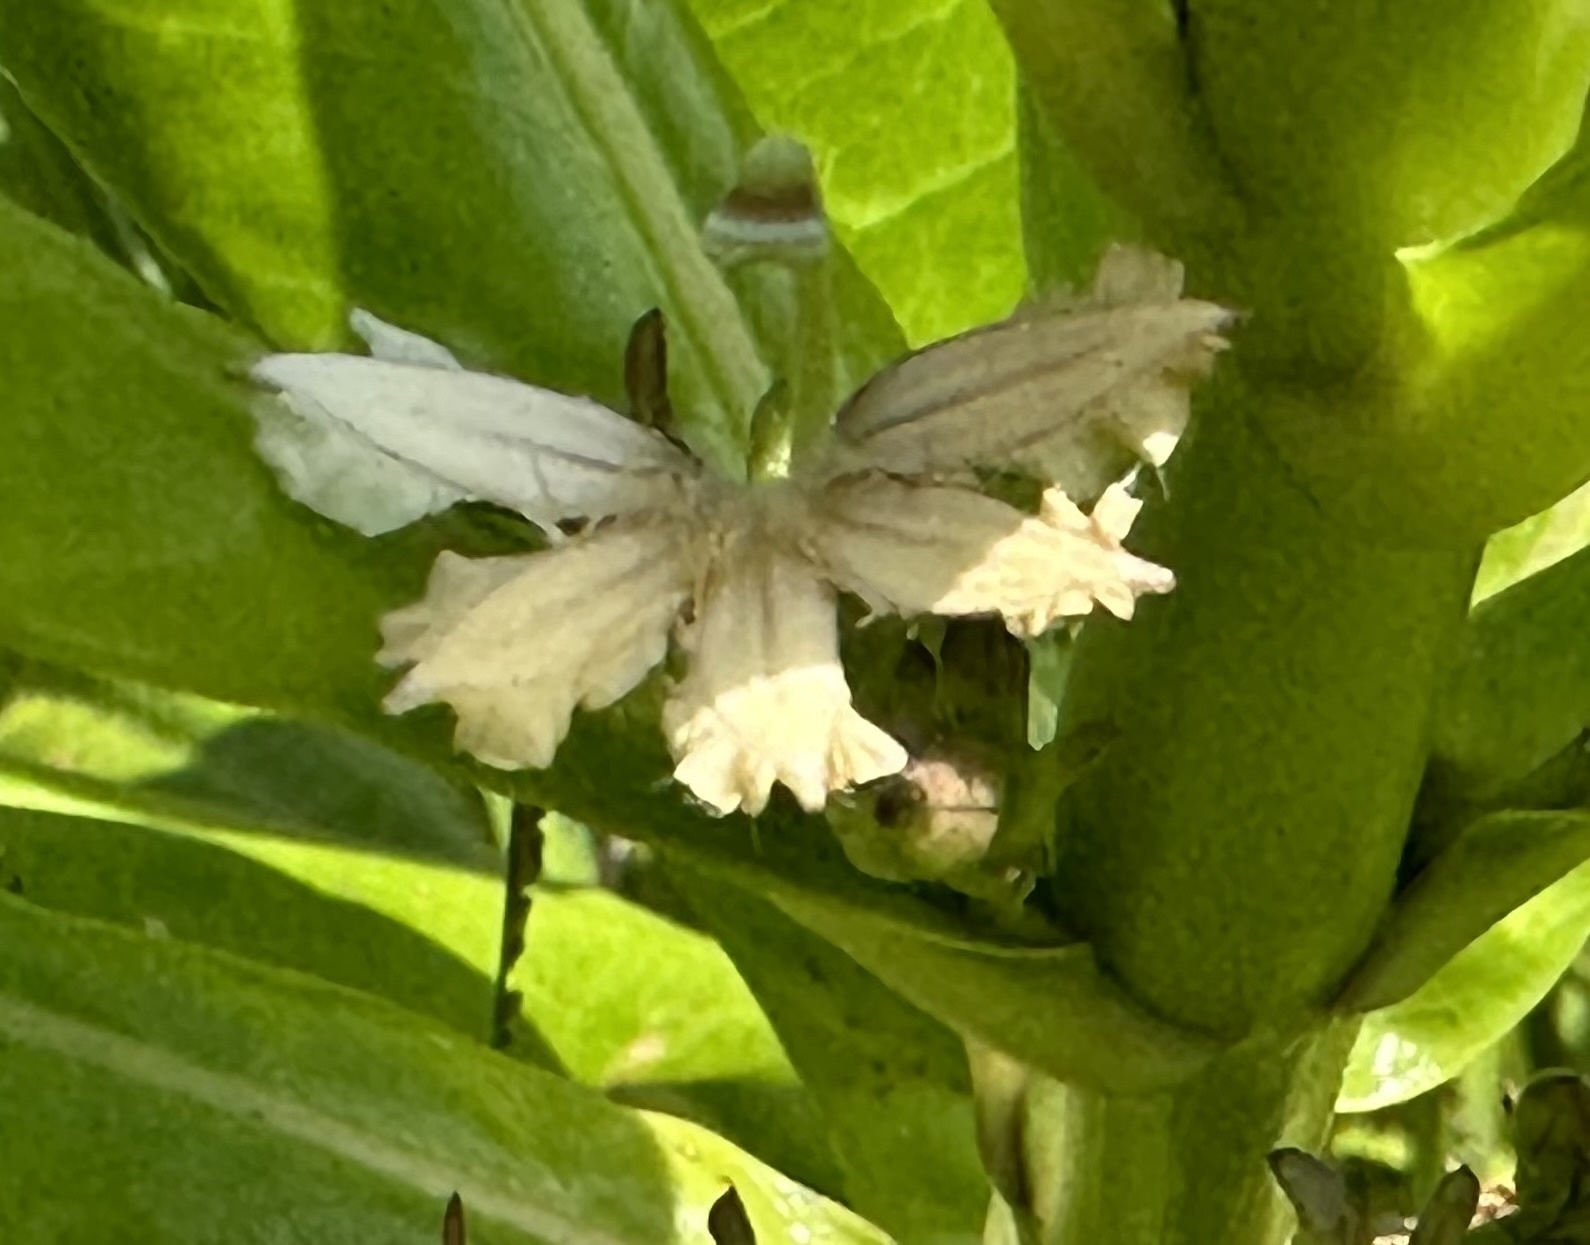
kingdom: Plantae
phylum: Tracheophyta
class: Magnoliopsida
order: Asterales
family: Goodeniaceae
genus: Scaevola
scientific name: Scaevola taccada
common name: Sea lettucetree
